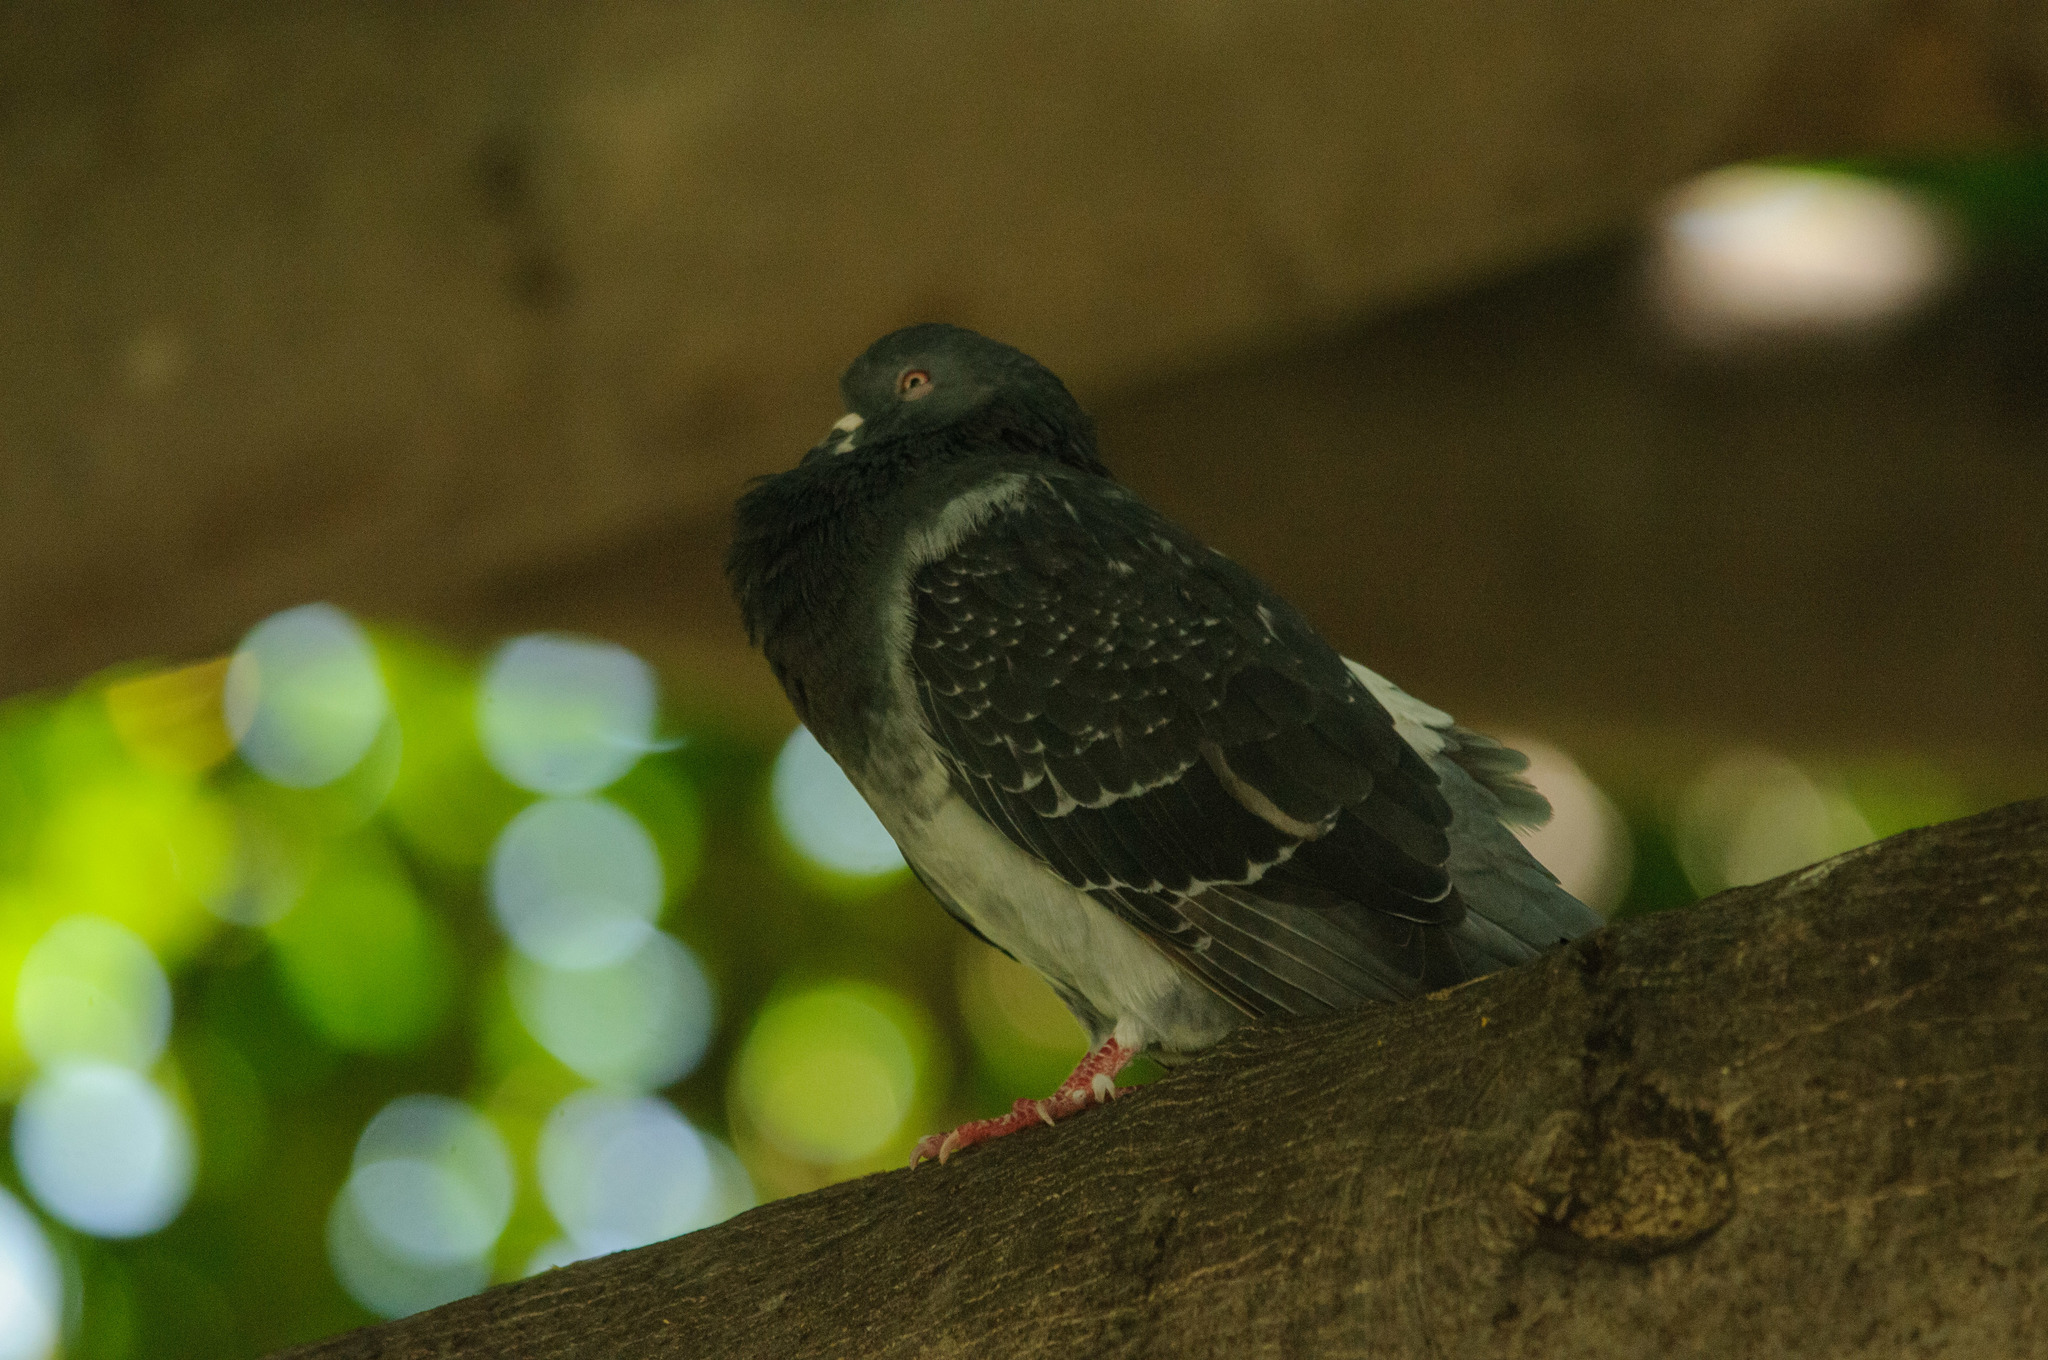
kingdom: Animalia
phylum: Chordata
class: Aves
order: Columbiformes
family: Columbidae
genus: Columba
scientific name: Columba livia
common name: Rock pigeon
